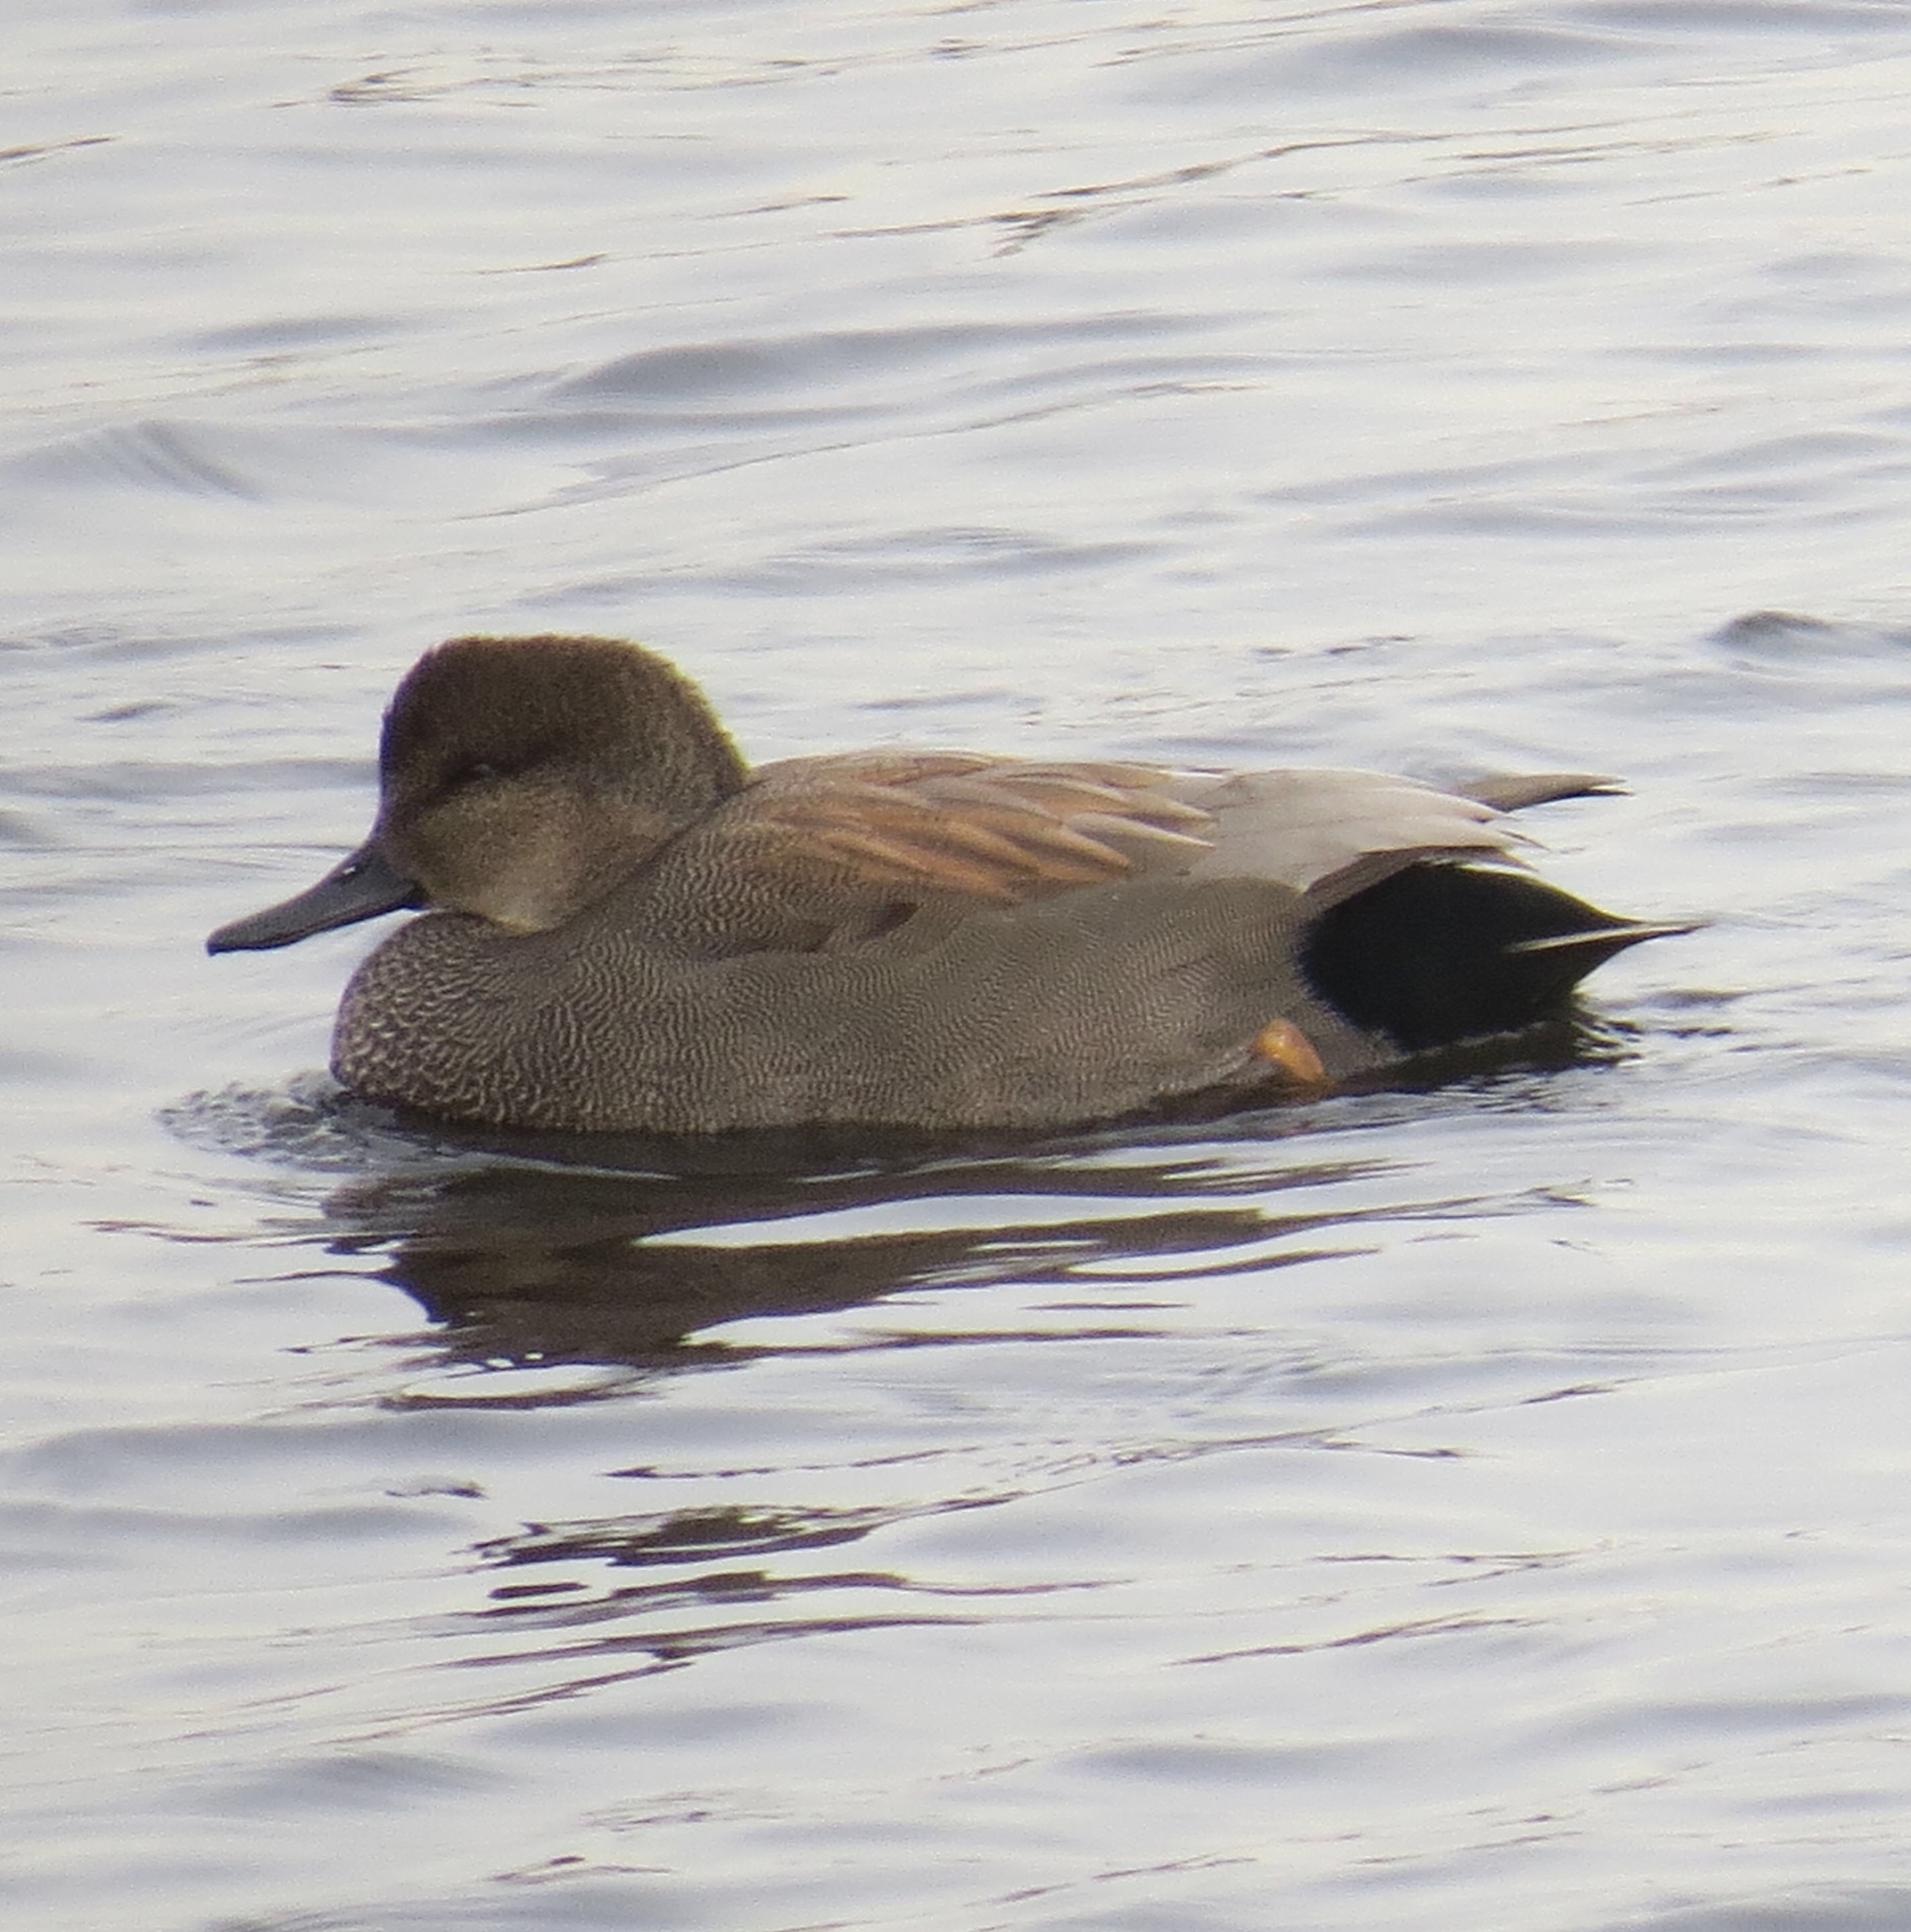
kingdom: Animalia
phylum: Chordata
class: Aves
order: Anseriformes
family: Anatidae
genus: Mareca
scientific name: Mareca strepera
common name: Gadwall
